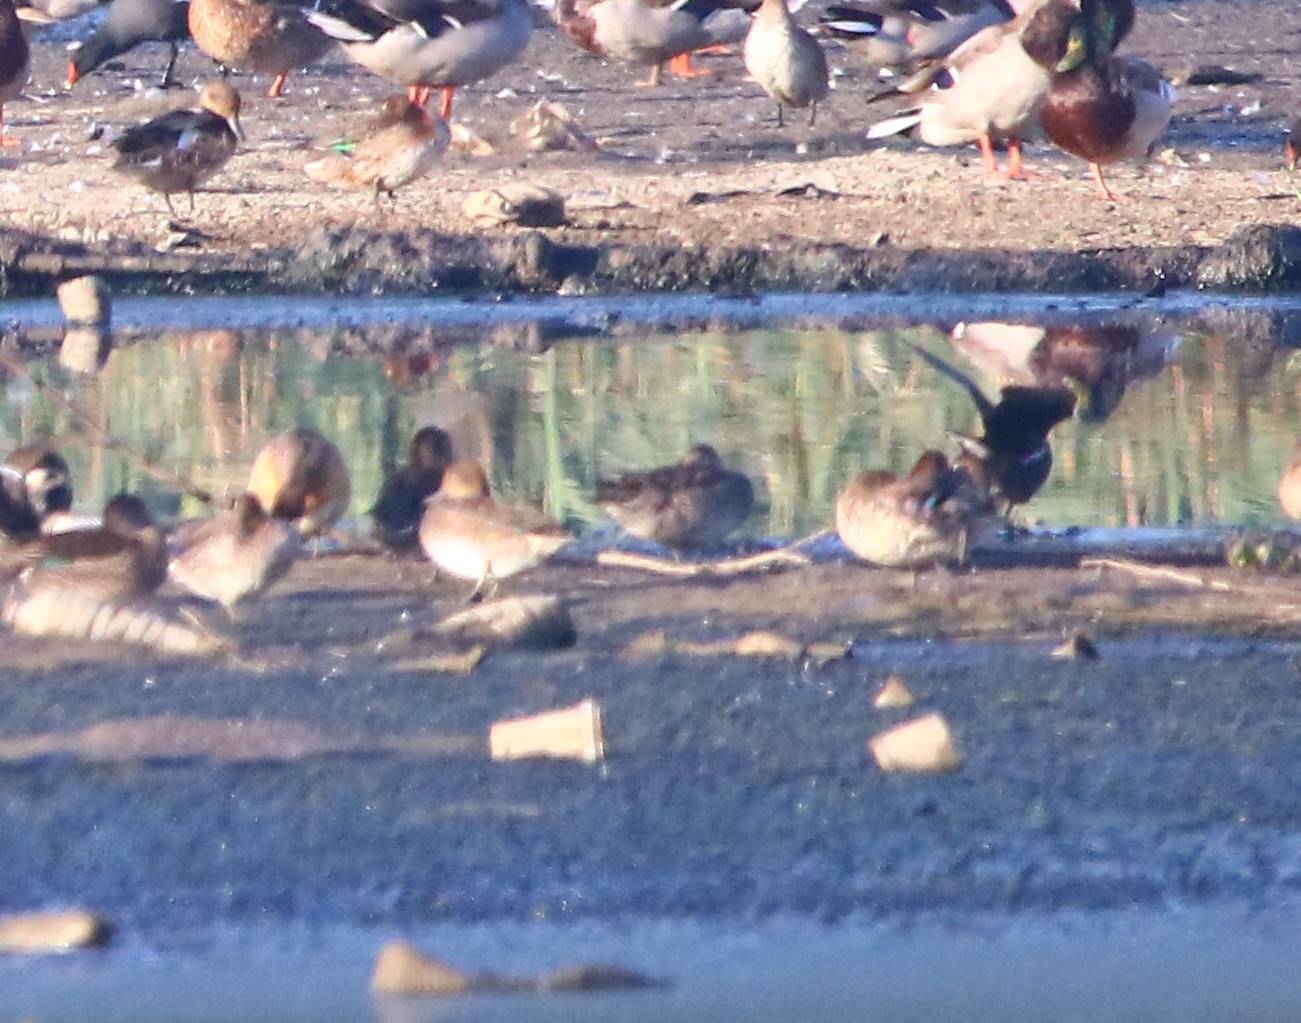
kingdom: Animalia
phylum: Chordata
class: Aves
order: Anseriformes
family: Anatidae
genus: Anas
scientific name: Anas crecca
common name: Eurasian teal
